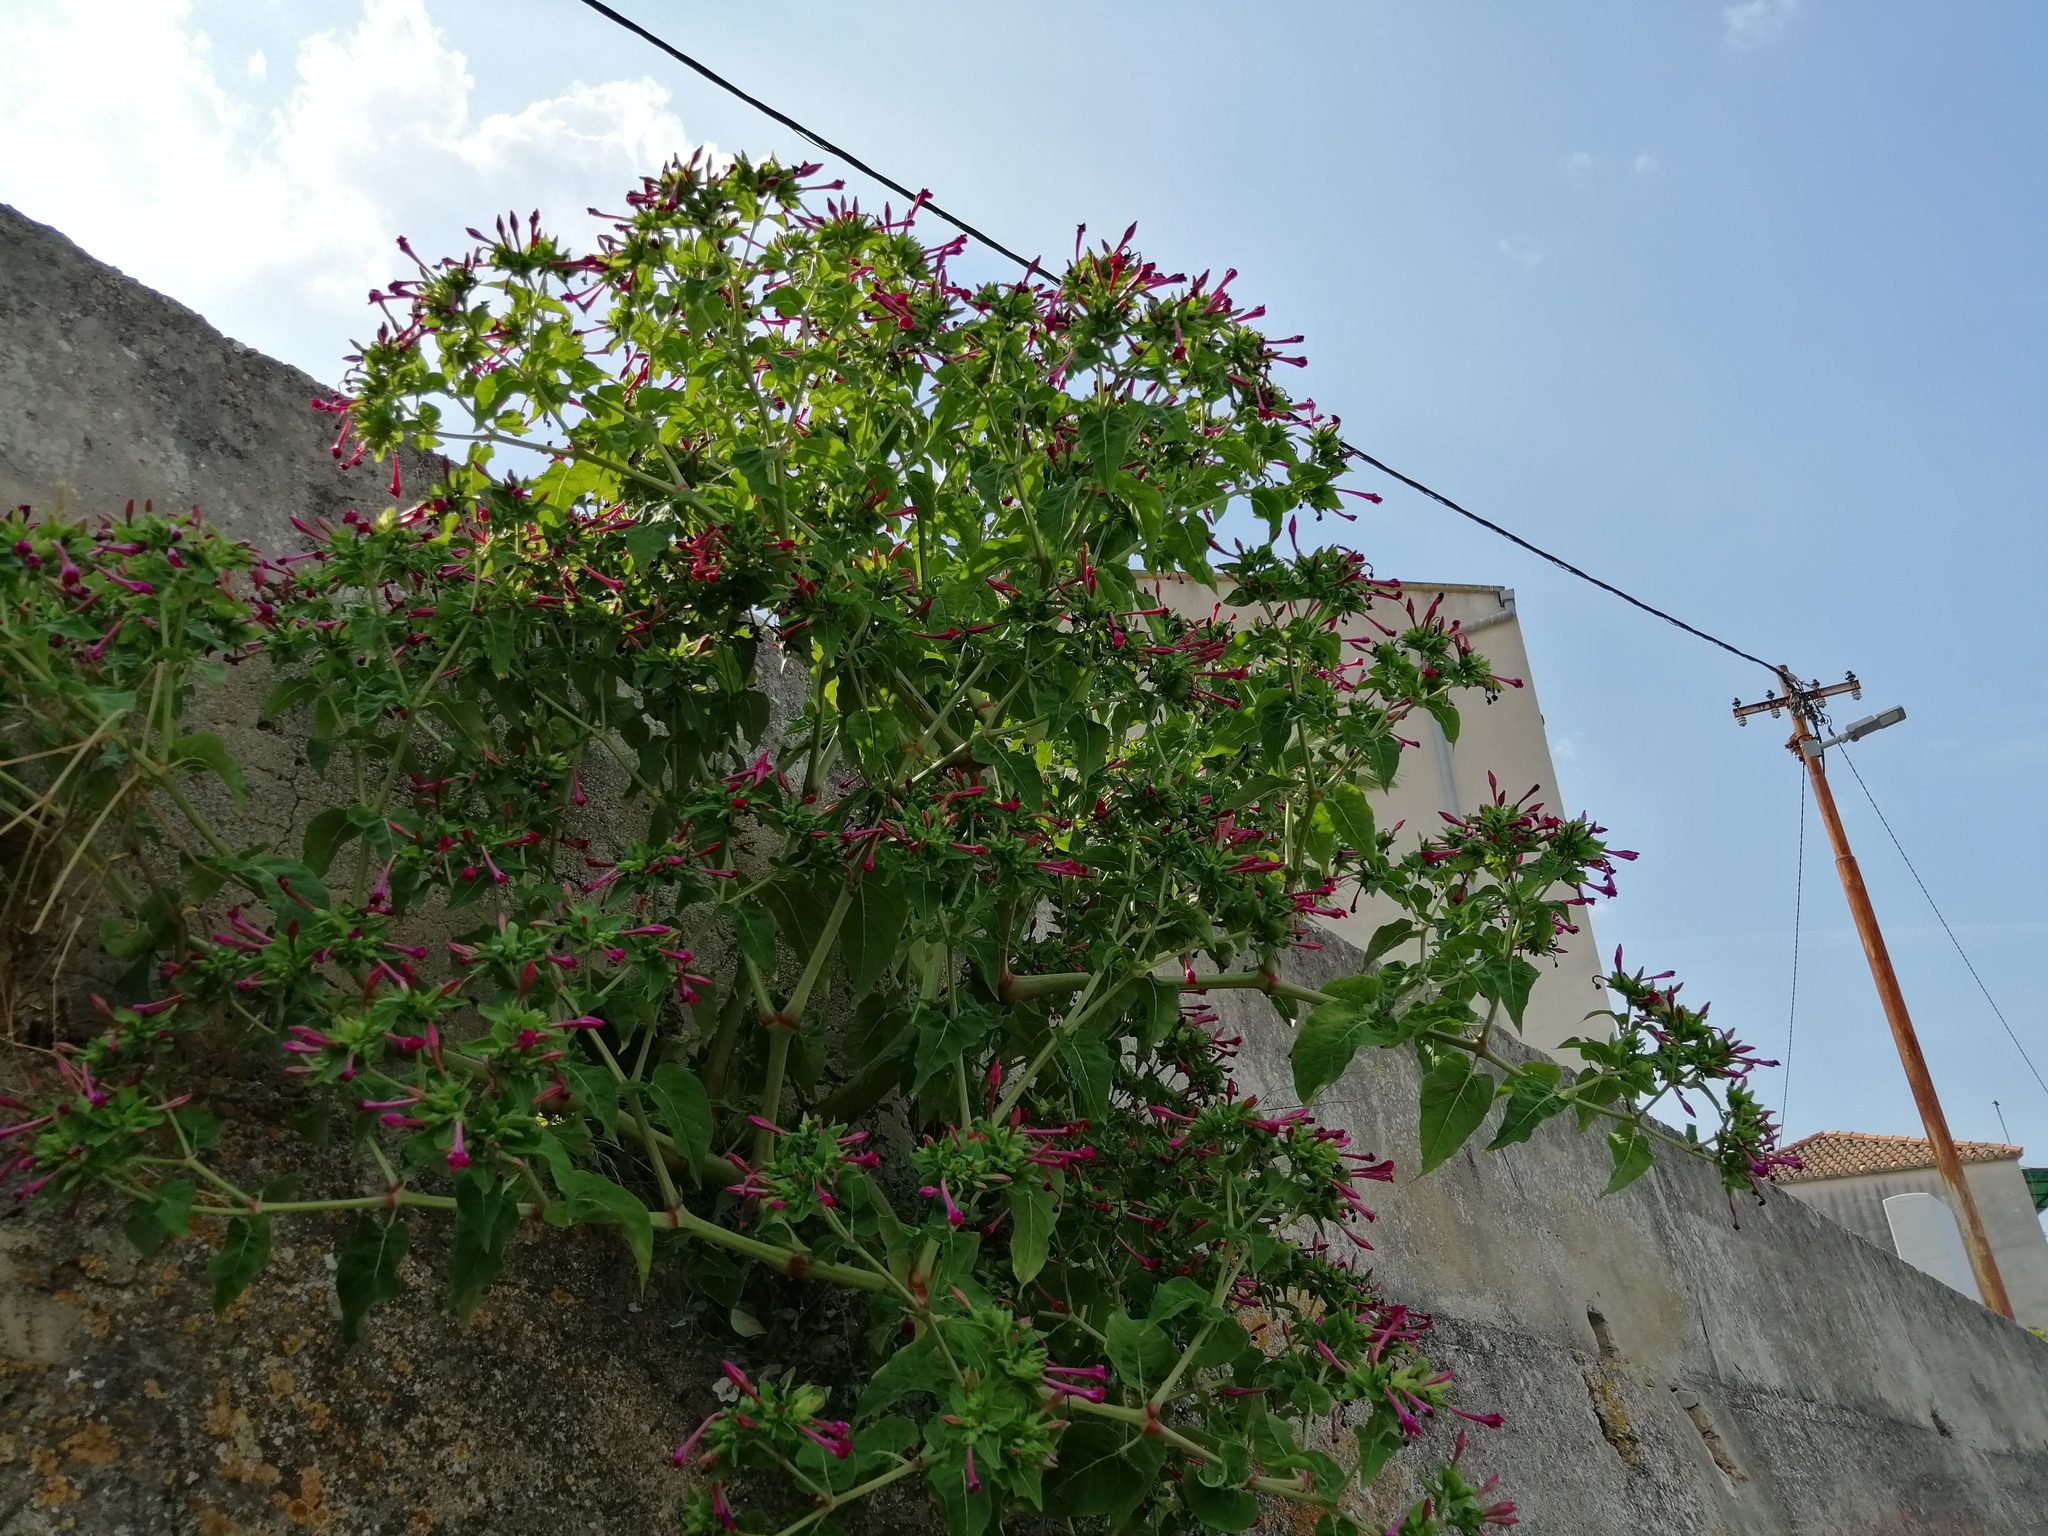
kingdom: Plantae
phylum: Tracheophyta
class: Magnoliopsida
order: Caryophyllales
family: Nyctaginaceae
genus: Mirabilis
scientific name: Mirabilis jalapa
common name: Marvel-of-peru
